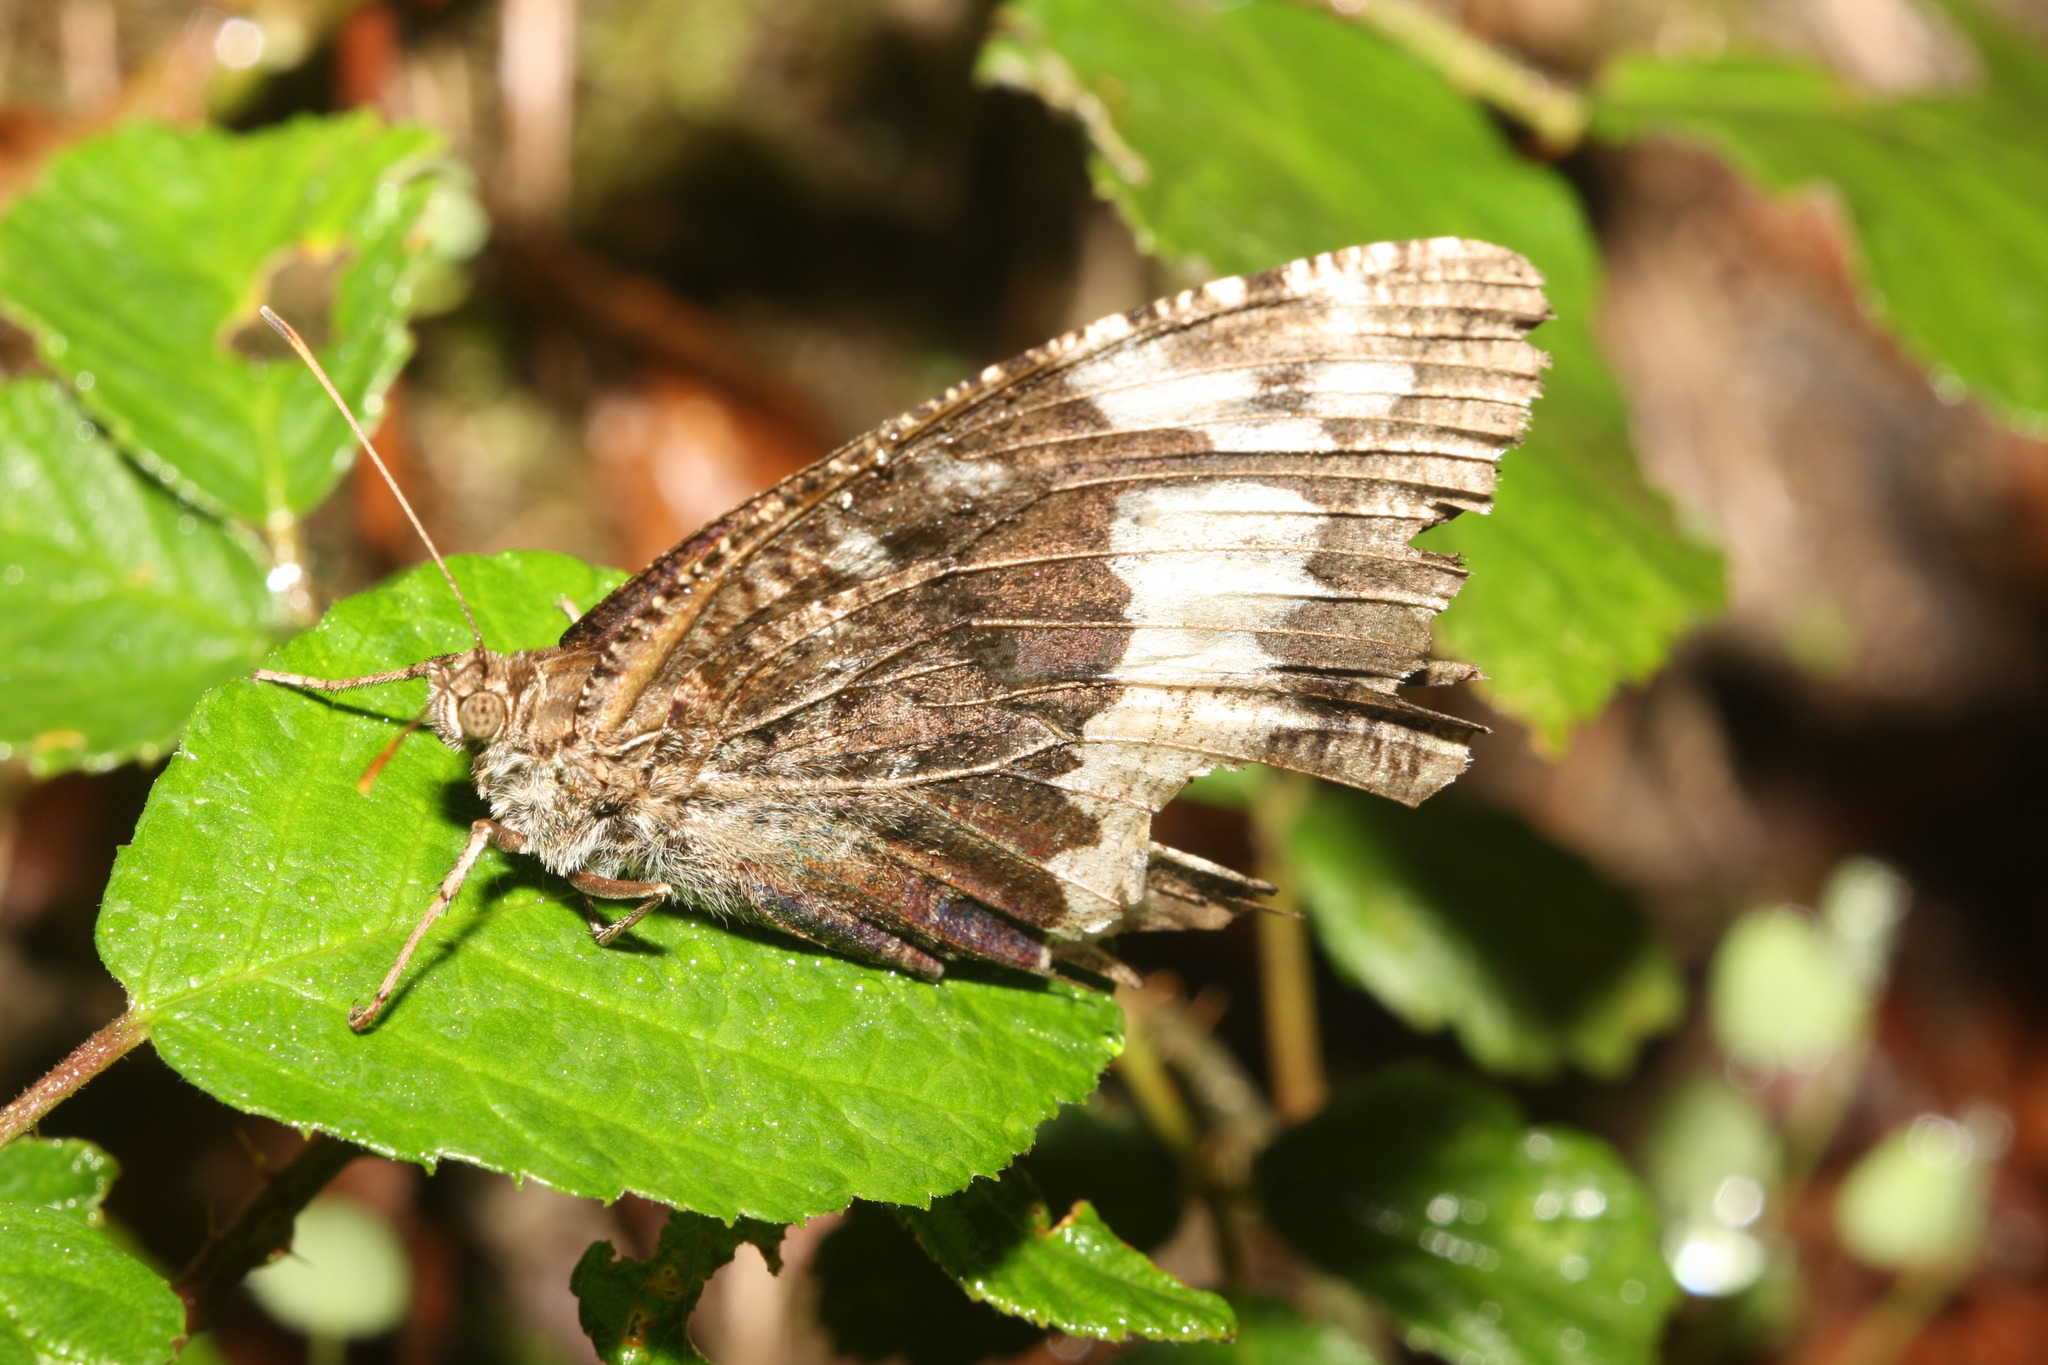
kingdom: Animalia
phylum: Arthropoda
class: Insecta
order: Lepidoptera
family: Lycaenidae
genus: Loweia
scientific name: Loweia tityrus
